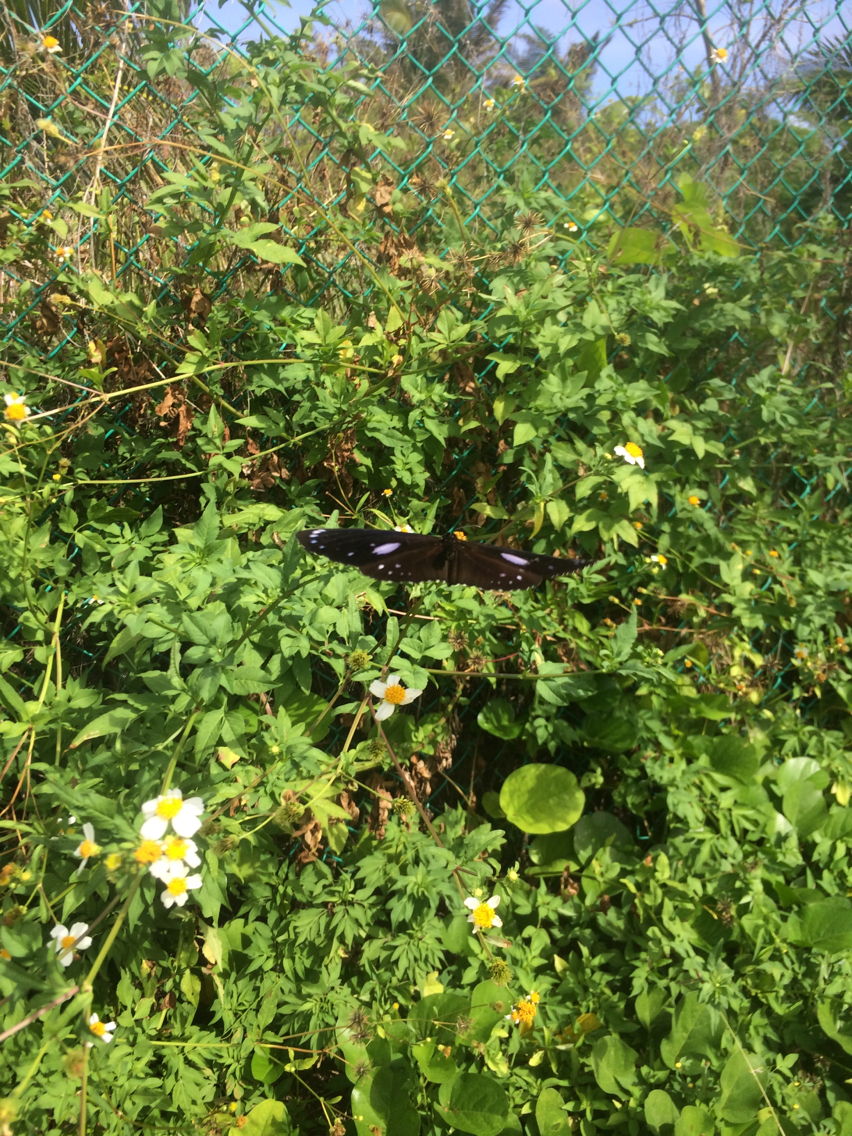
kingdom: Animalia
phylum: Arthropoda
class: Insecta
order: Lepidoptera
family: Nymphalidae
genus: Euploea
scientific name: Euploea eunice
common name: Blue-banded king crow butterfly
